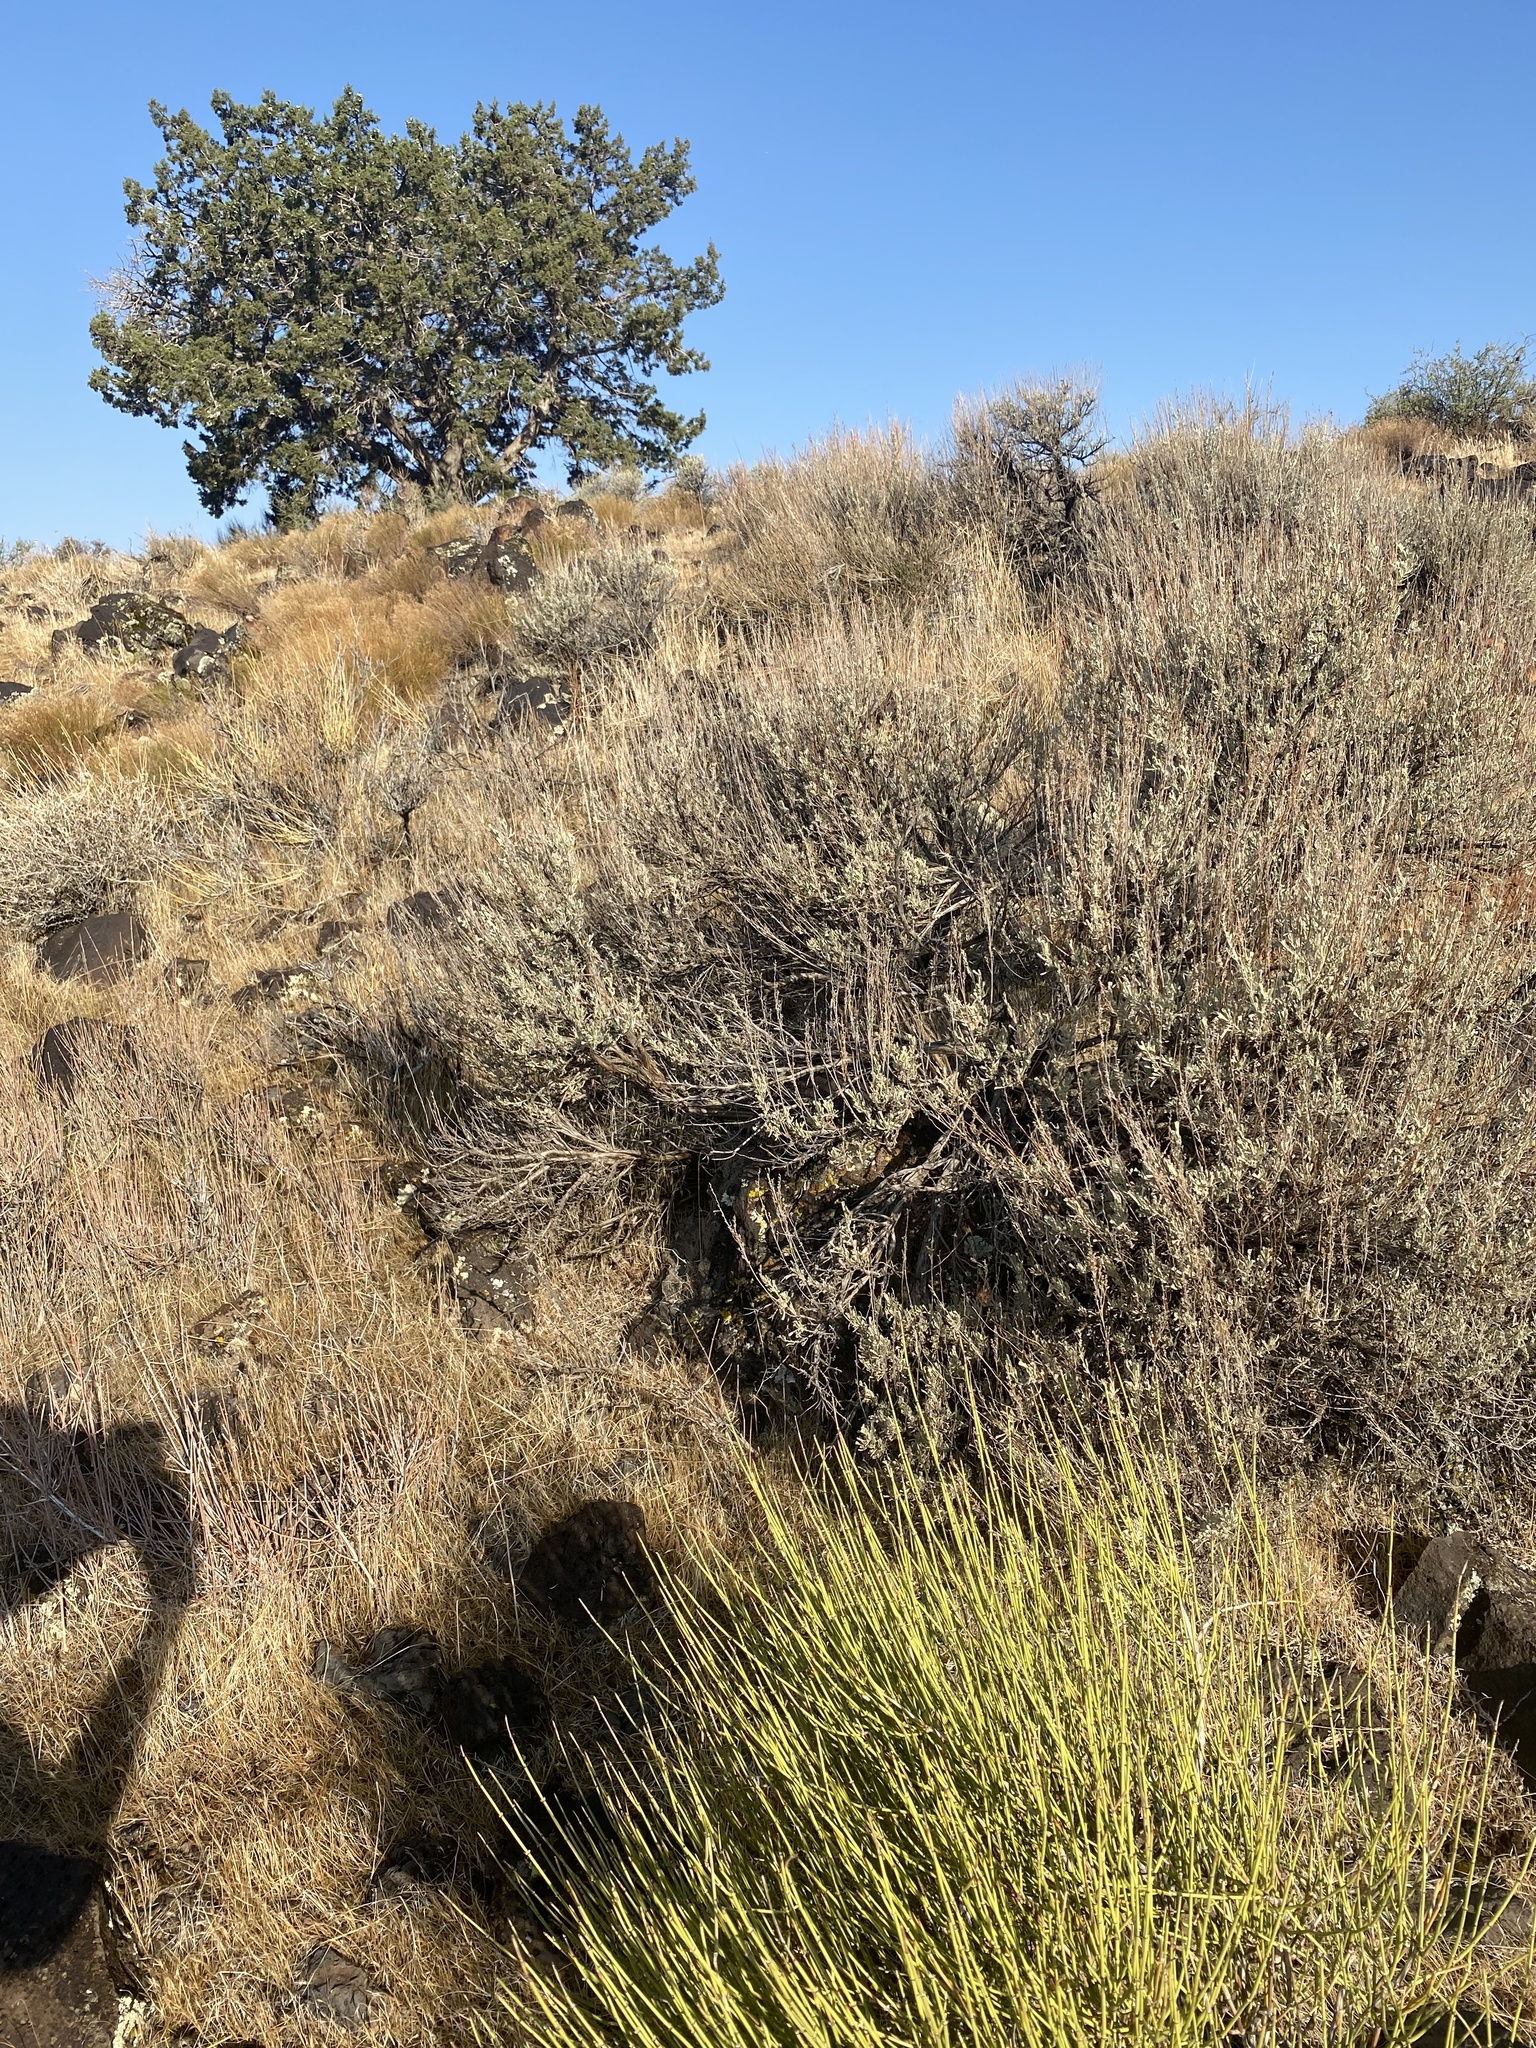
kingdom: Plantae
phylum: Tracheophyta
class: Magnoliopsida
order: Asterales
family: Asteraceae
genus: Artemisia
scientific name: Artemisia tridentata
